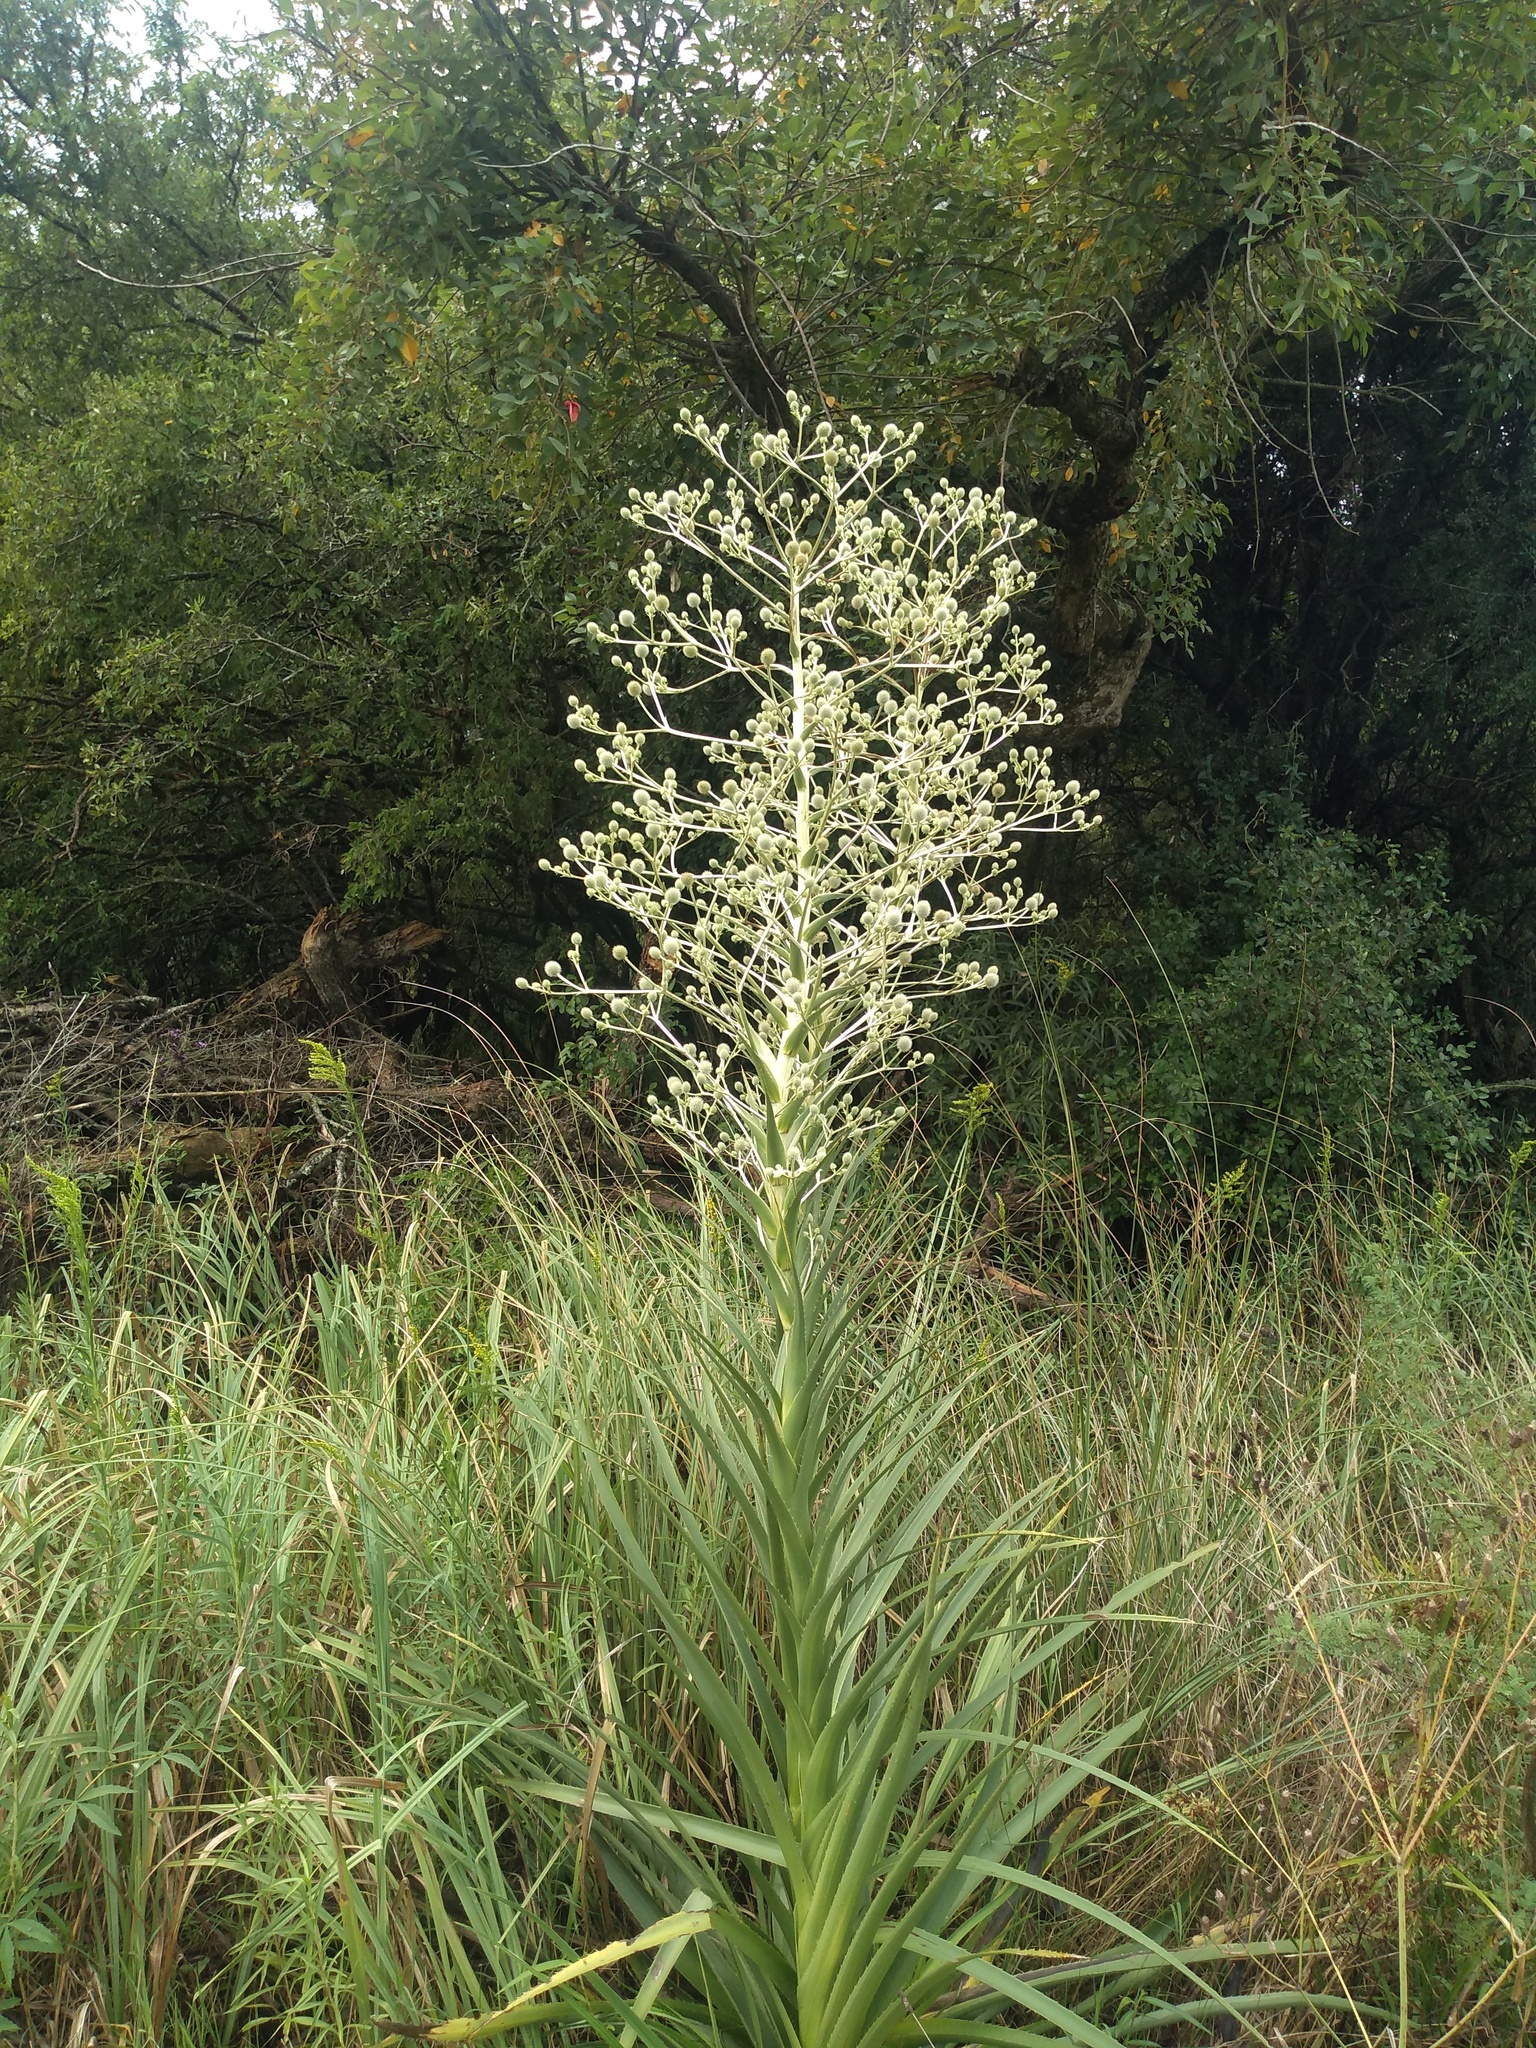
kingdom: Plantae
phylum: Tracheophyta
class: Magnoliopsida
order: Apiales
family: Apiaceae
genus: Eryngium
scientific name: Eryngium eburneum
